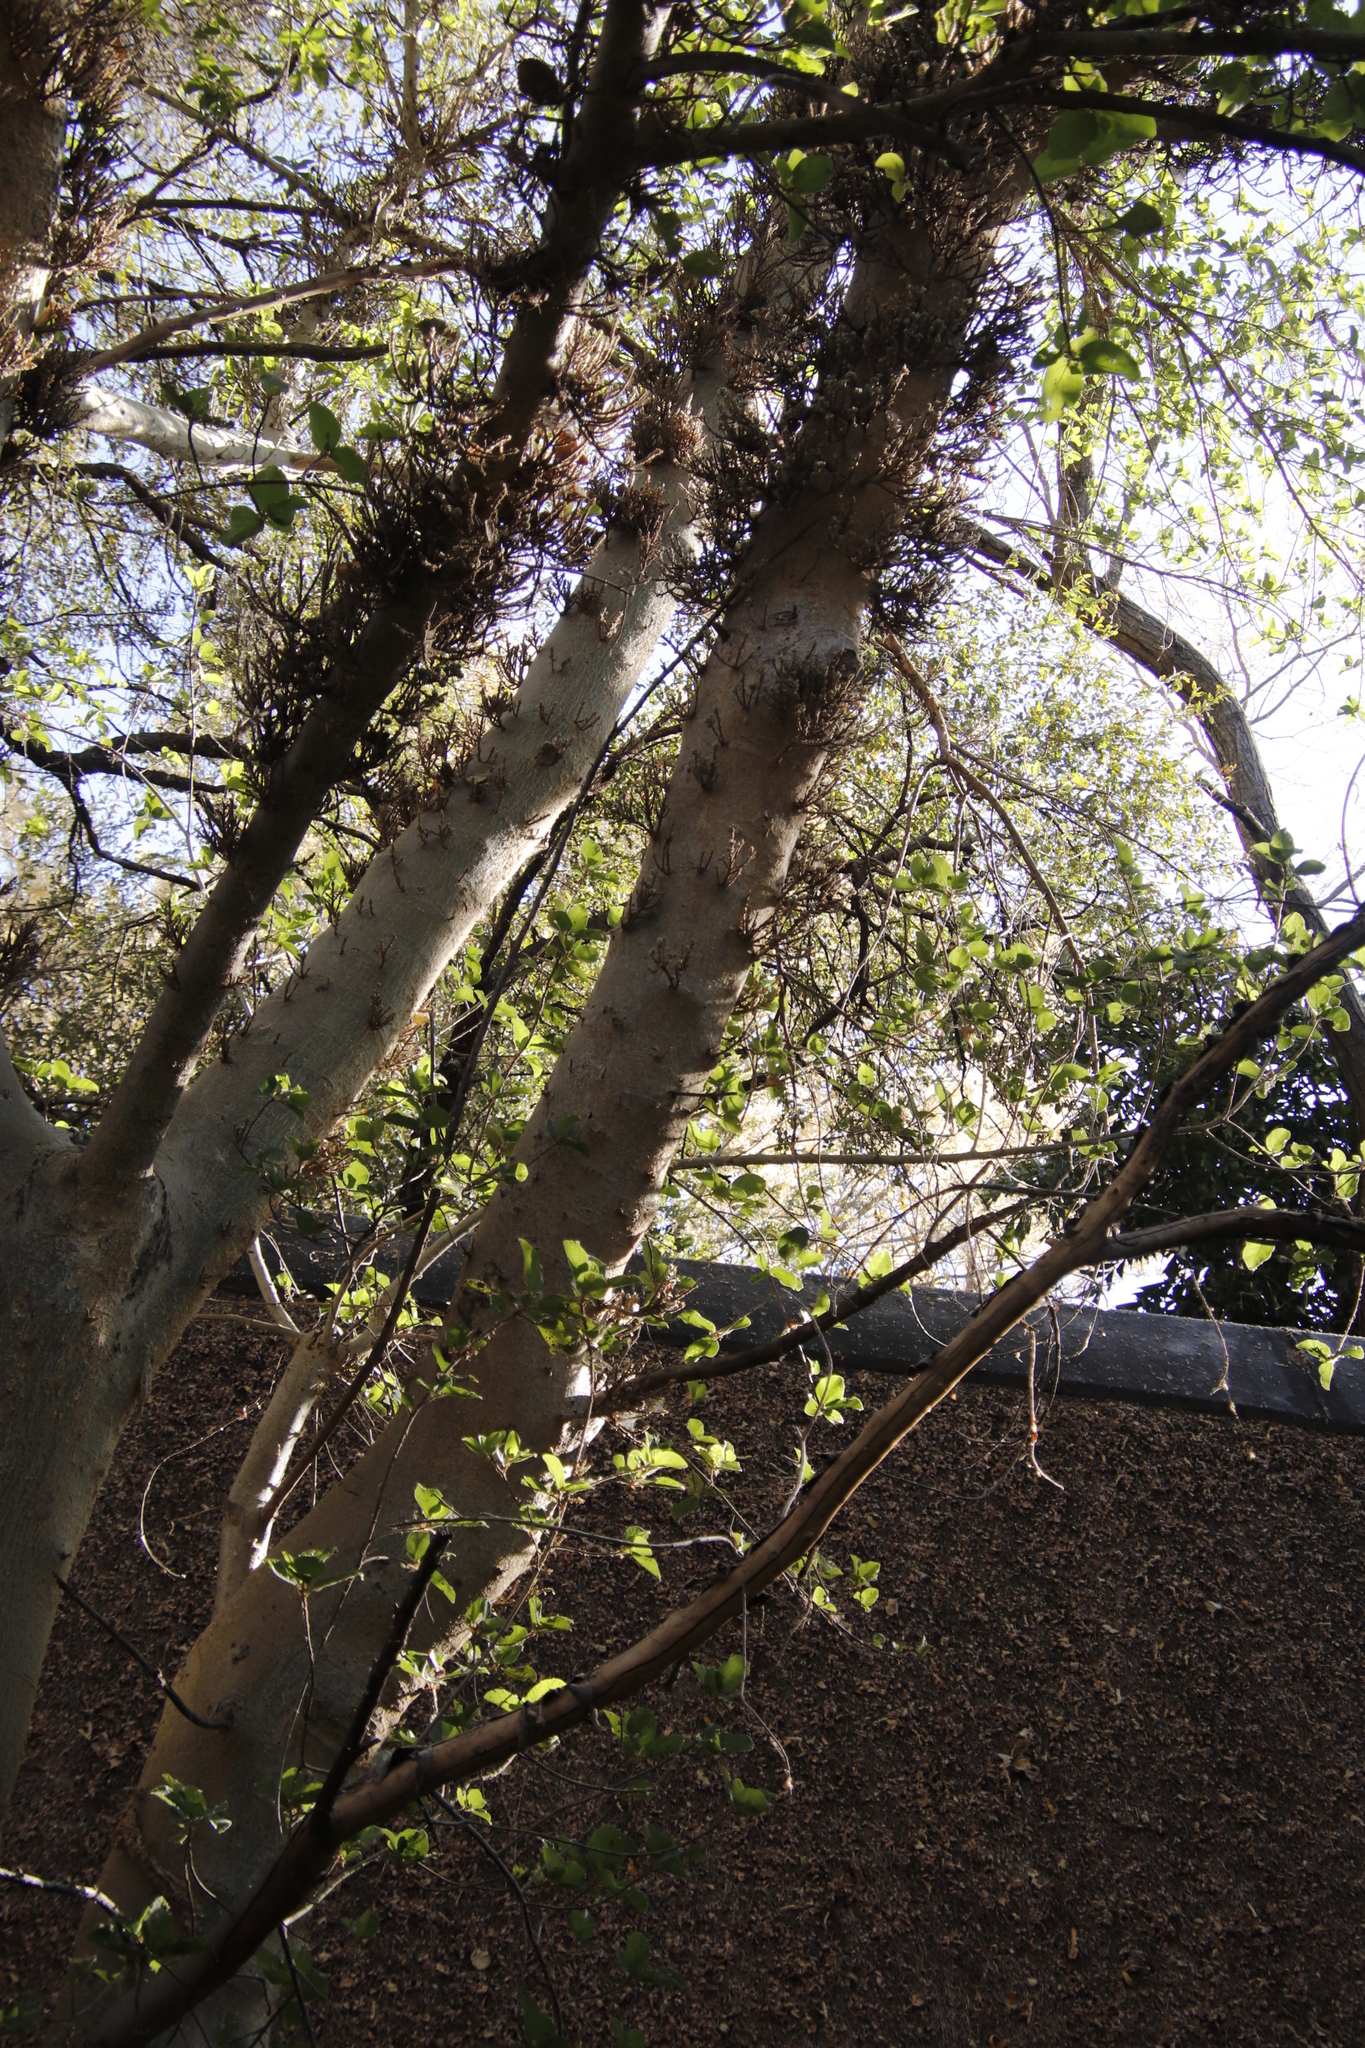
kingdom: Plantae
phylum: Tracheophyta
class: Magnoliopsida
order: Rosales
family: Moraceae
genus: Ficus
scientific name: Ficus sycomorus
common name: Sycomore
